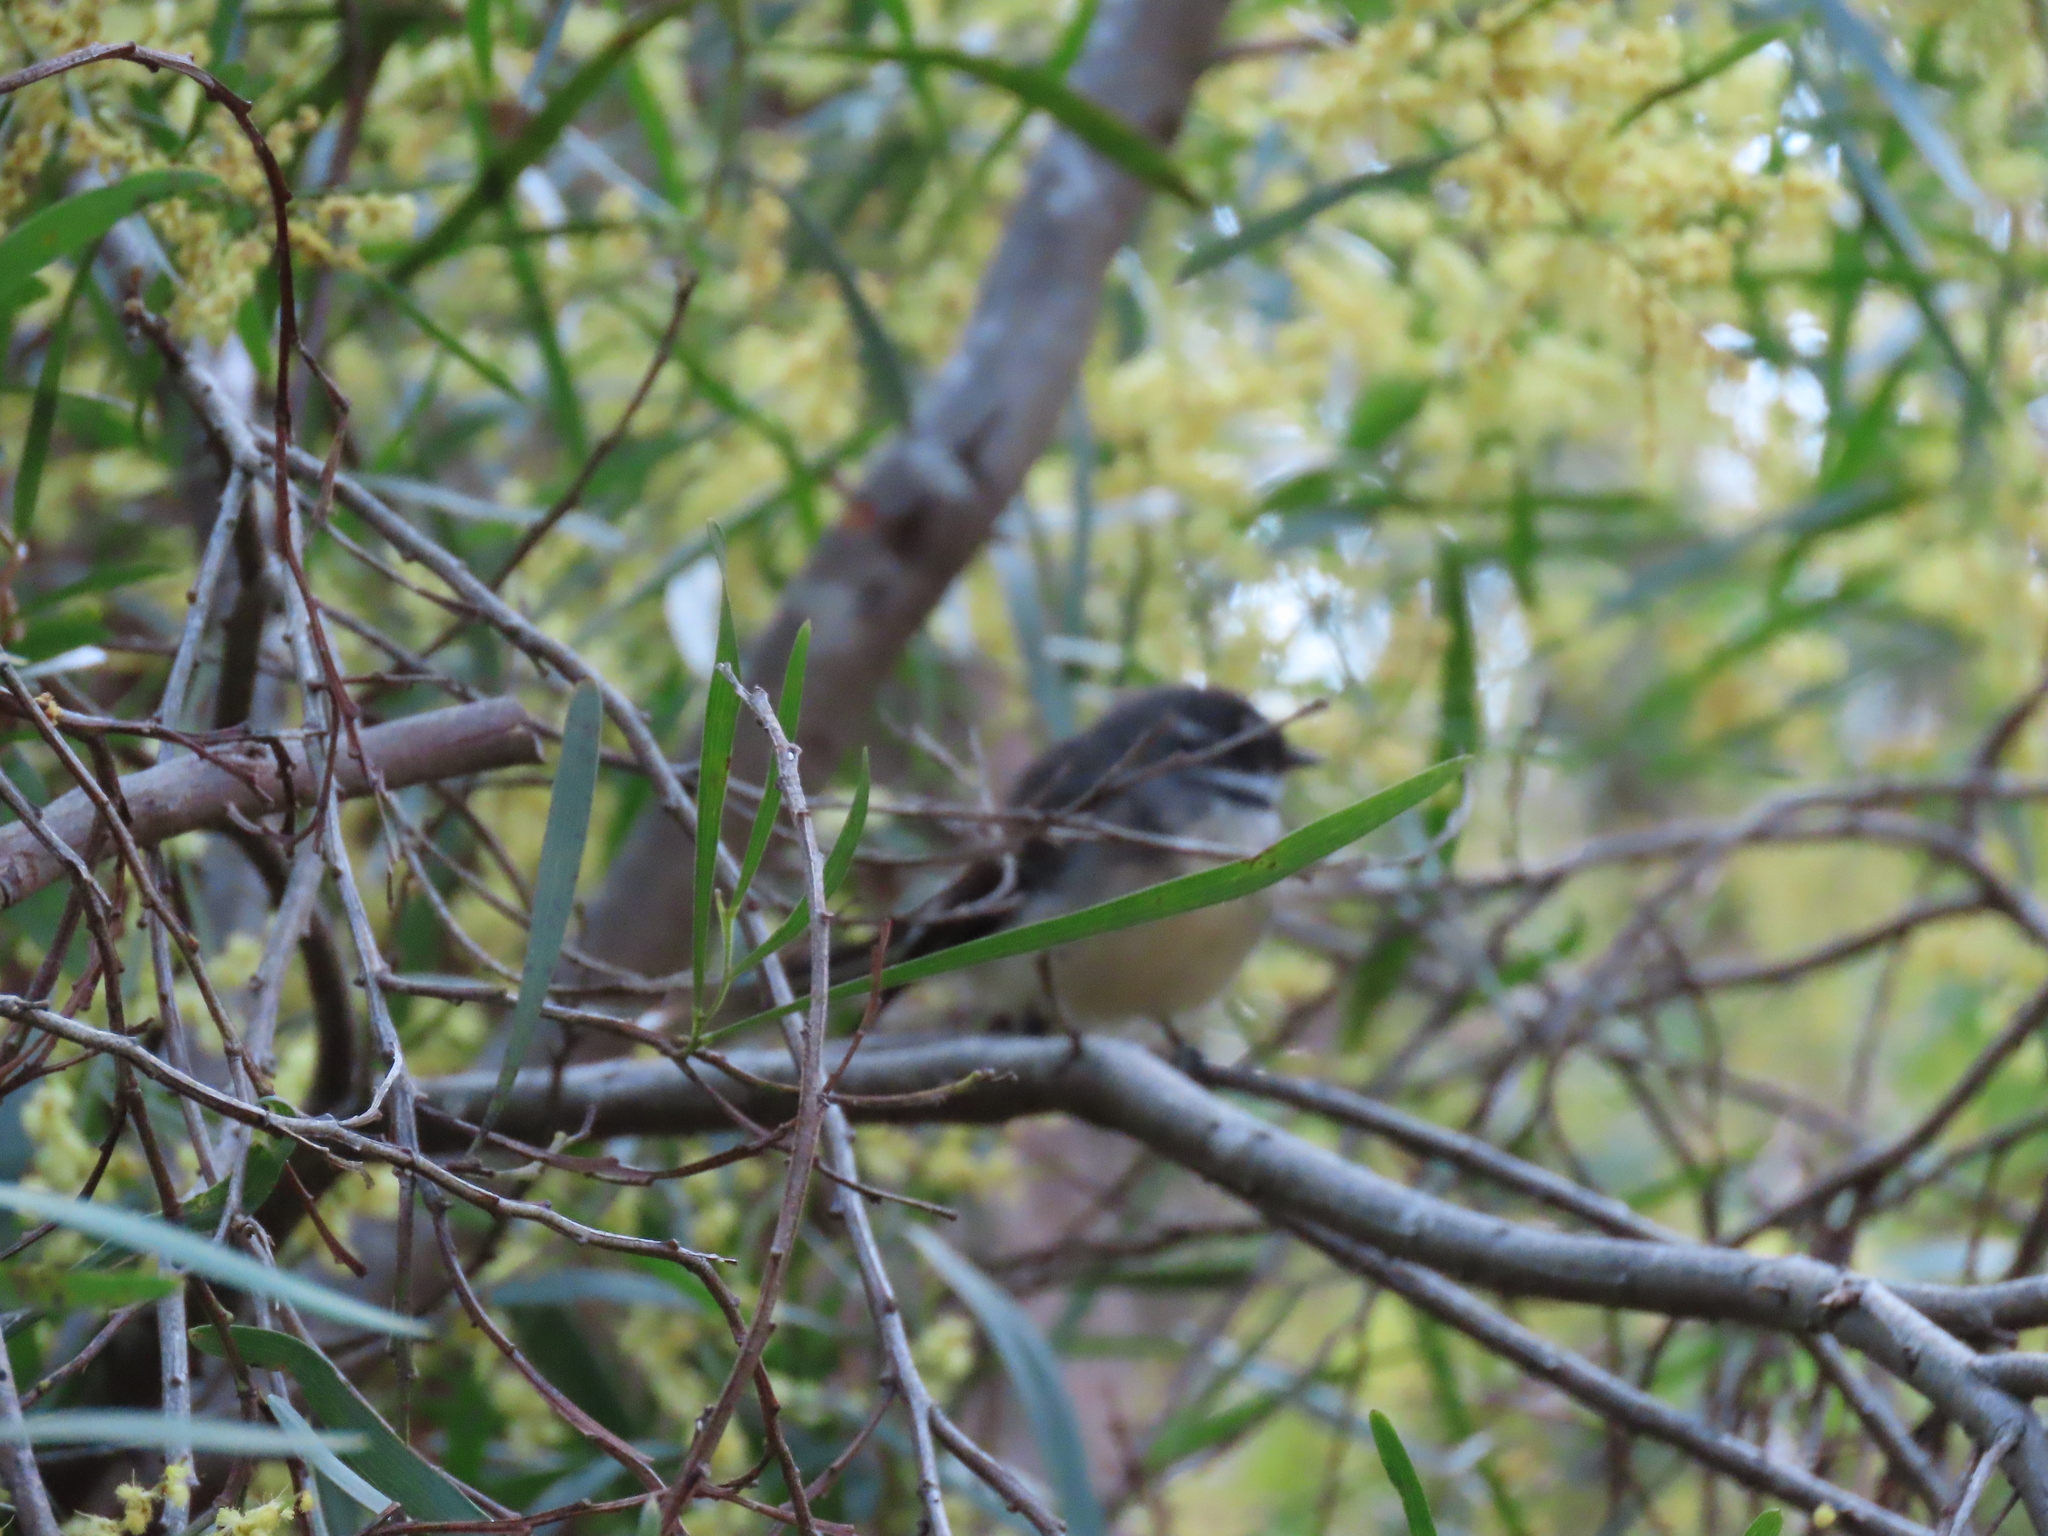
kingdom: Animalia
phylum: Chordata
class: Aves
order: Passeriformes
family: Rhipiduridae
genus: Rhipidura
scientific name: Rhipidura albiscapa
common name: Grey fantail
